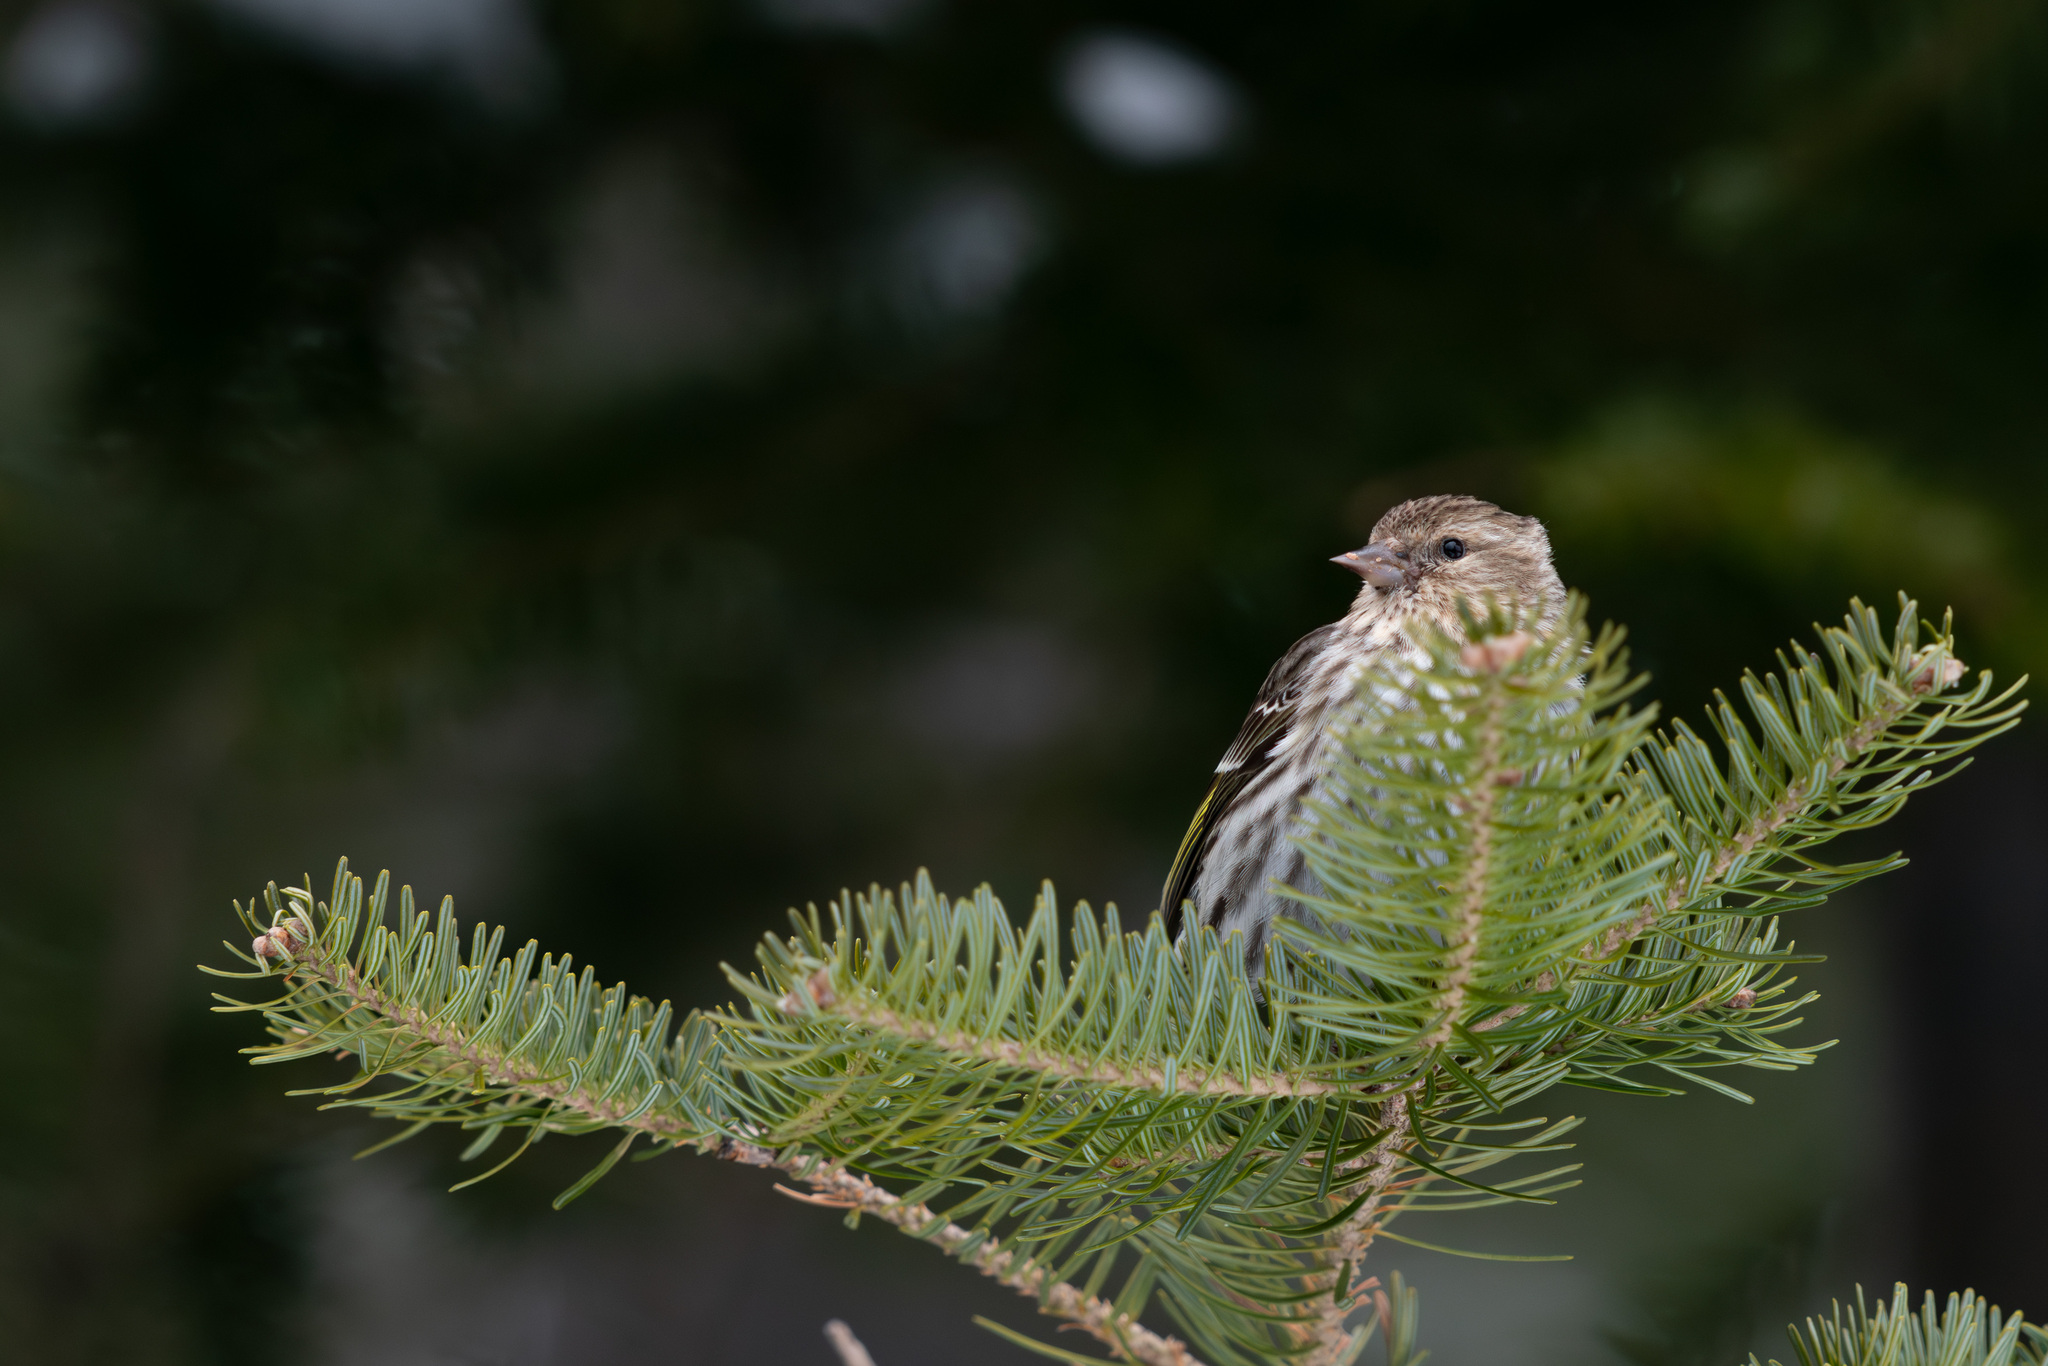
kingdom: Animalia
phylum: Chordata
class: Aves
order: Passeriformes
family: Fringillidae
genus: Spinus
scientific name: Spinus pinus
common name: Pine siskin
